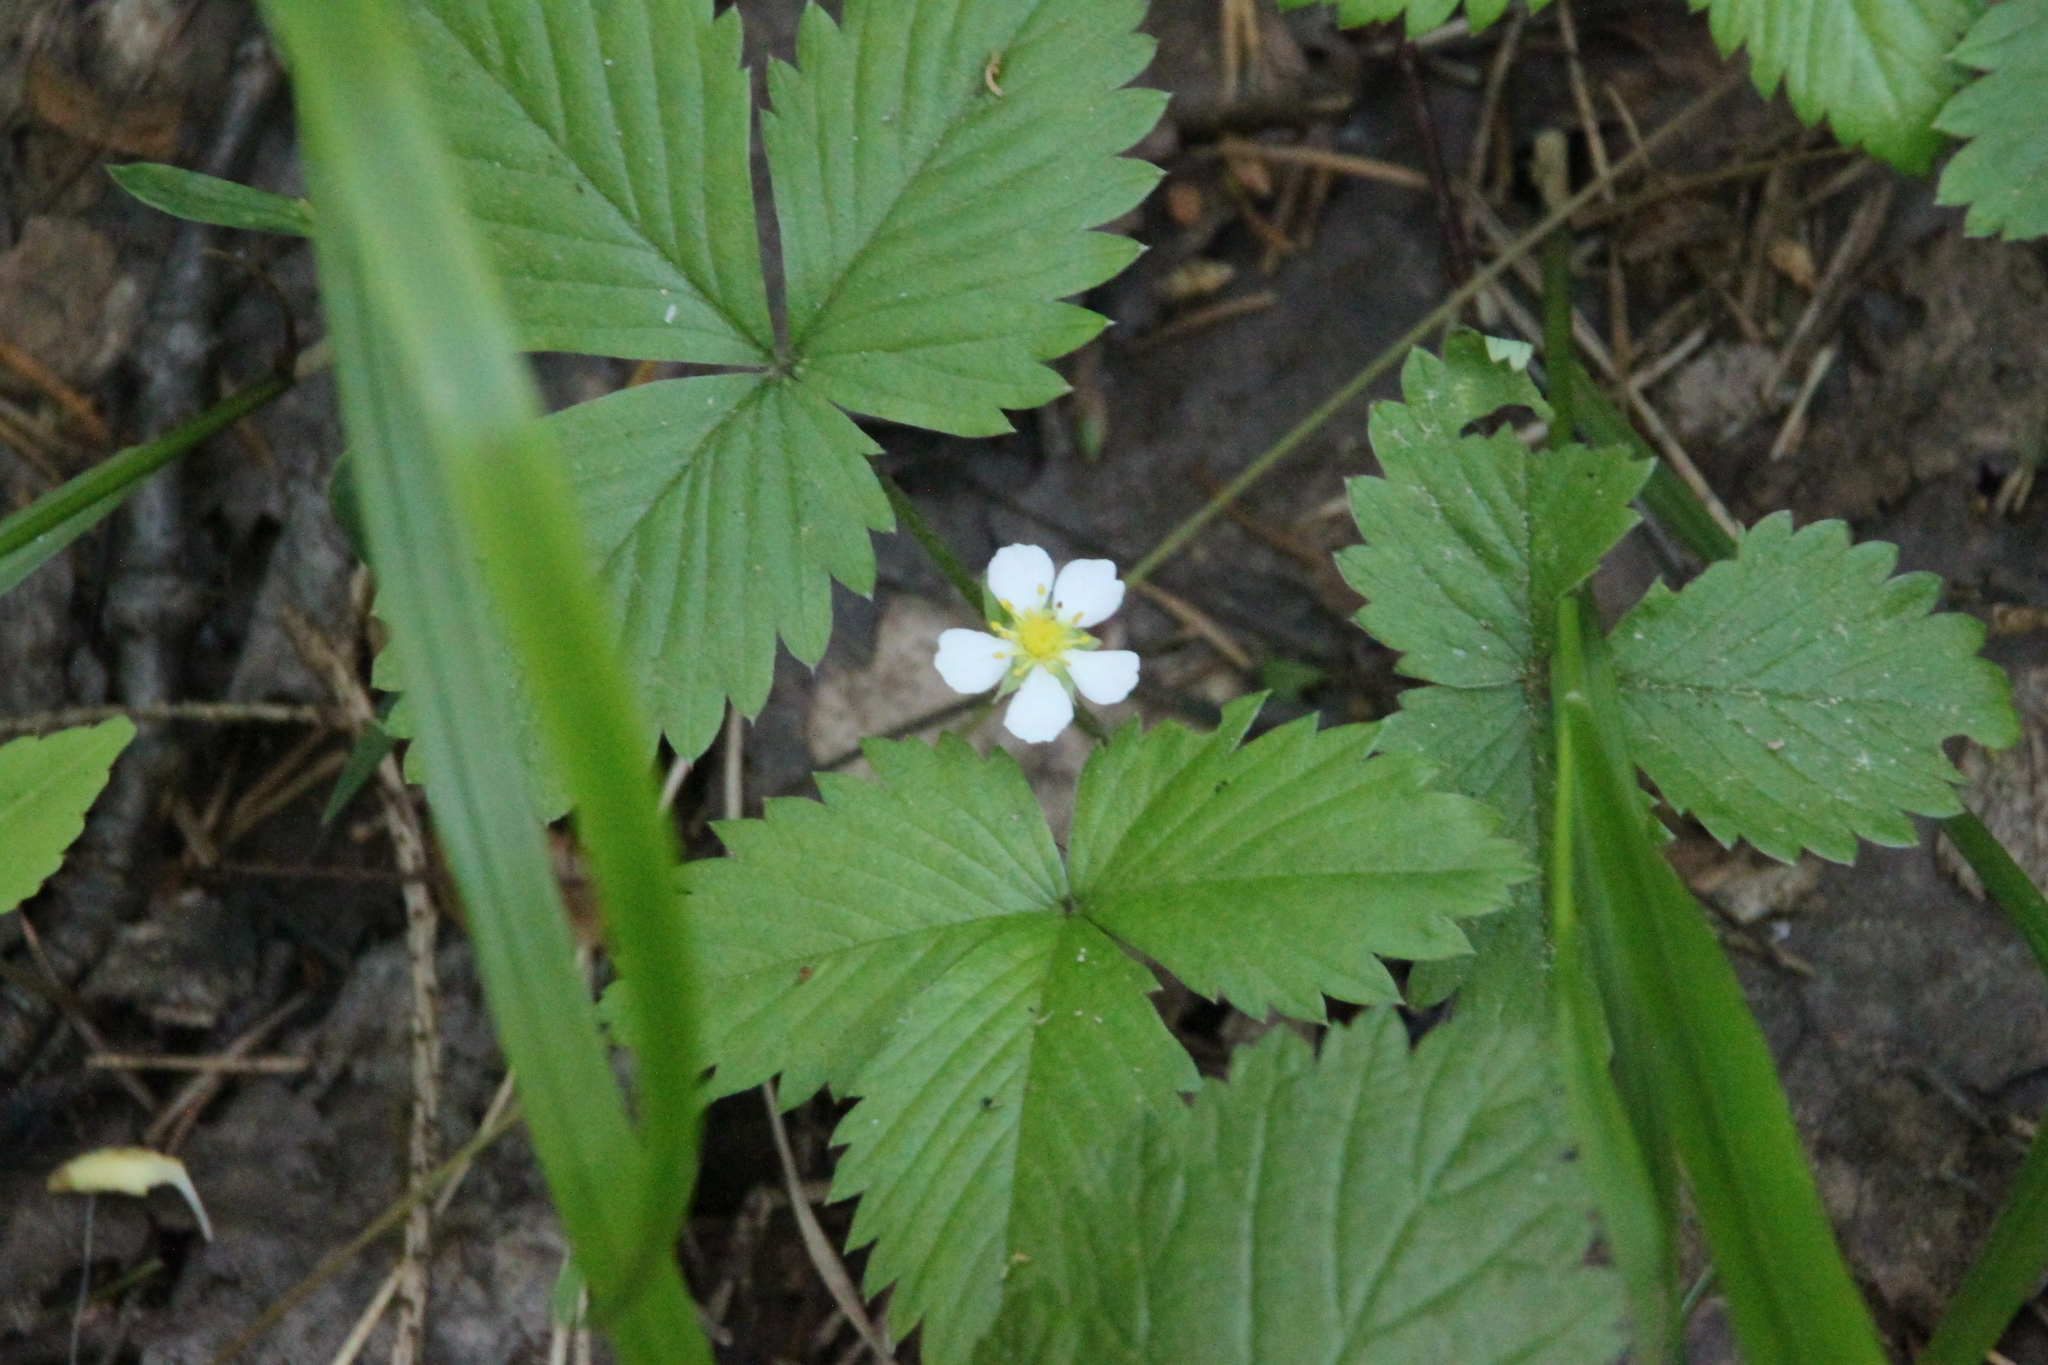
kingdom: Plantae
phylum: Tracheophyta
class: Magnoliopsida
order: Rosales
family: Rosaceae
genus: Fragaria
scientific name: Fragaria vesca
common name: Wild strawberry
